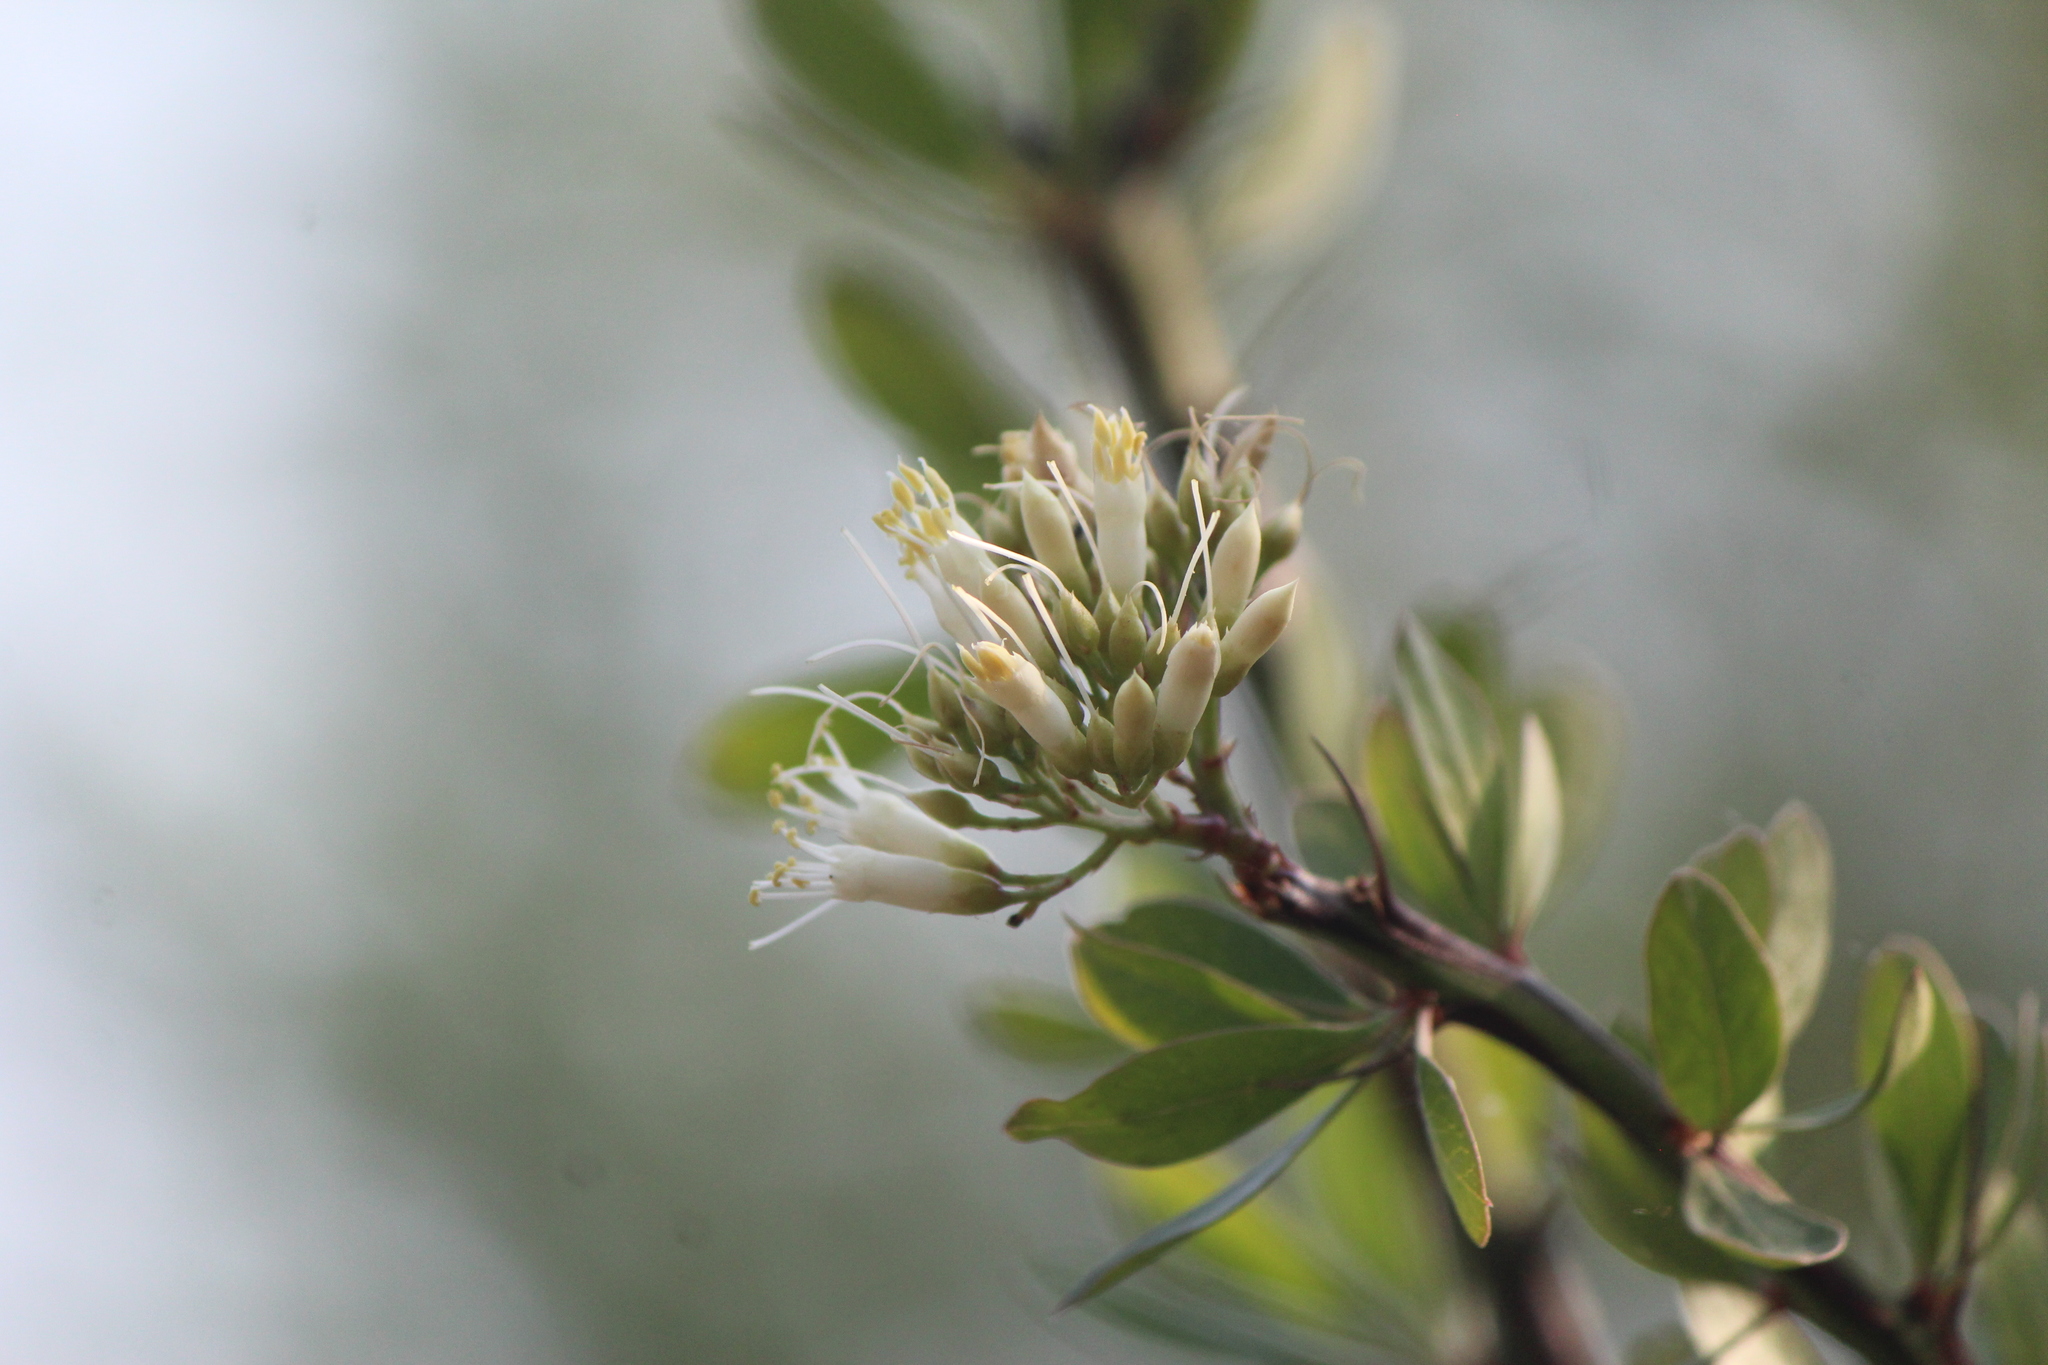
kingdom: Plantae
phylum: Tracheophyta
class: Magnoliopsida
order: Ericales
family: Fouquieriaceae
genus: Fouquieria
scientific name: Fouquieria fasciculata
